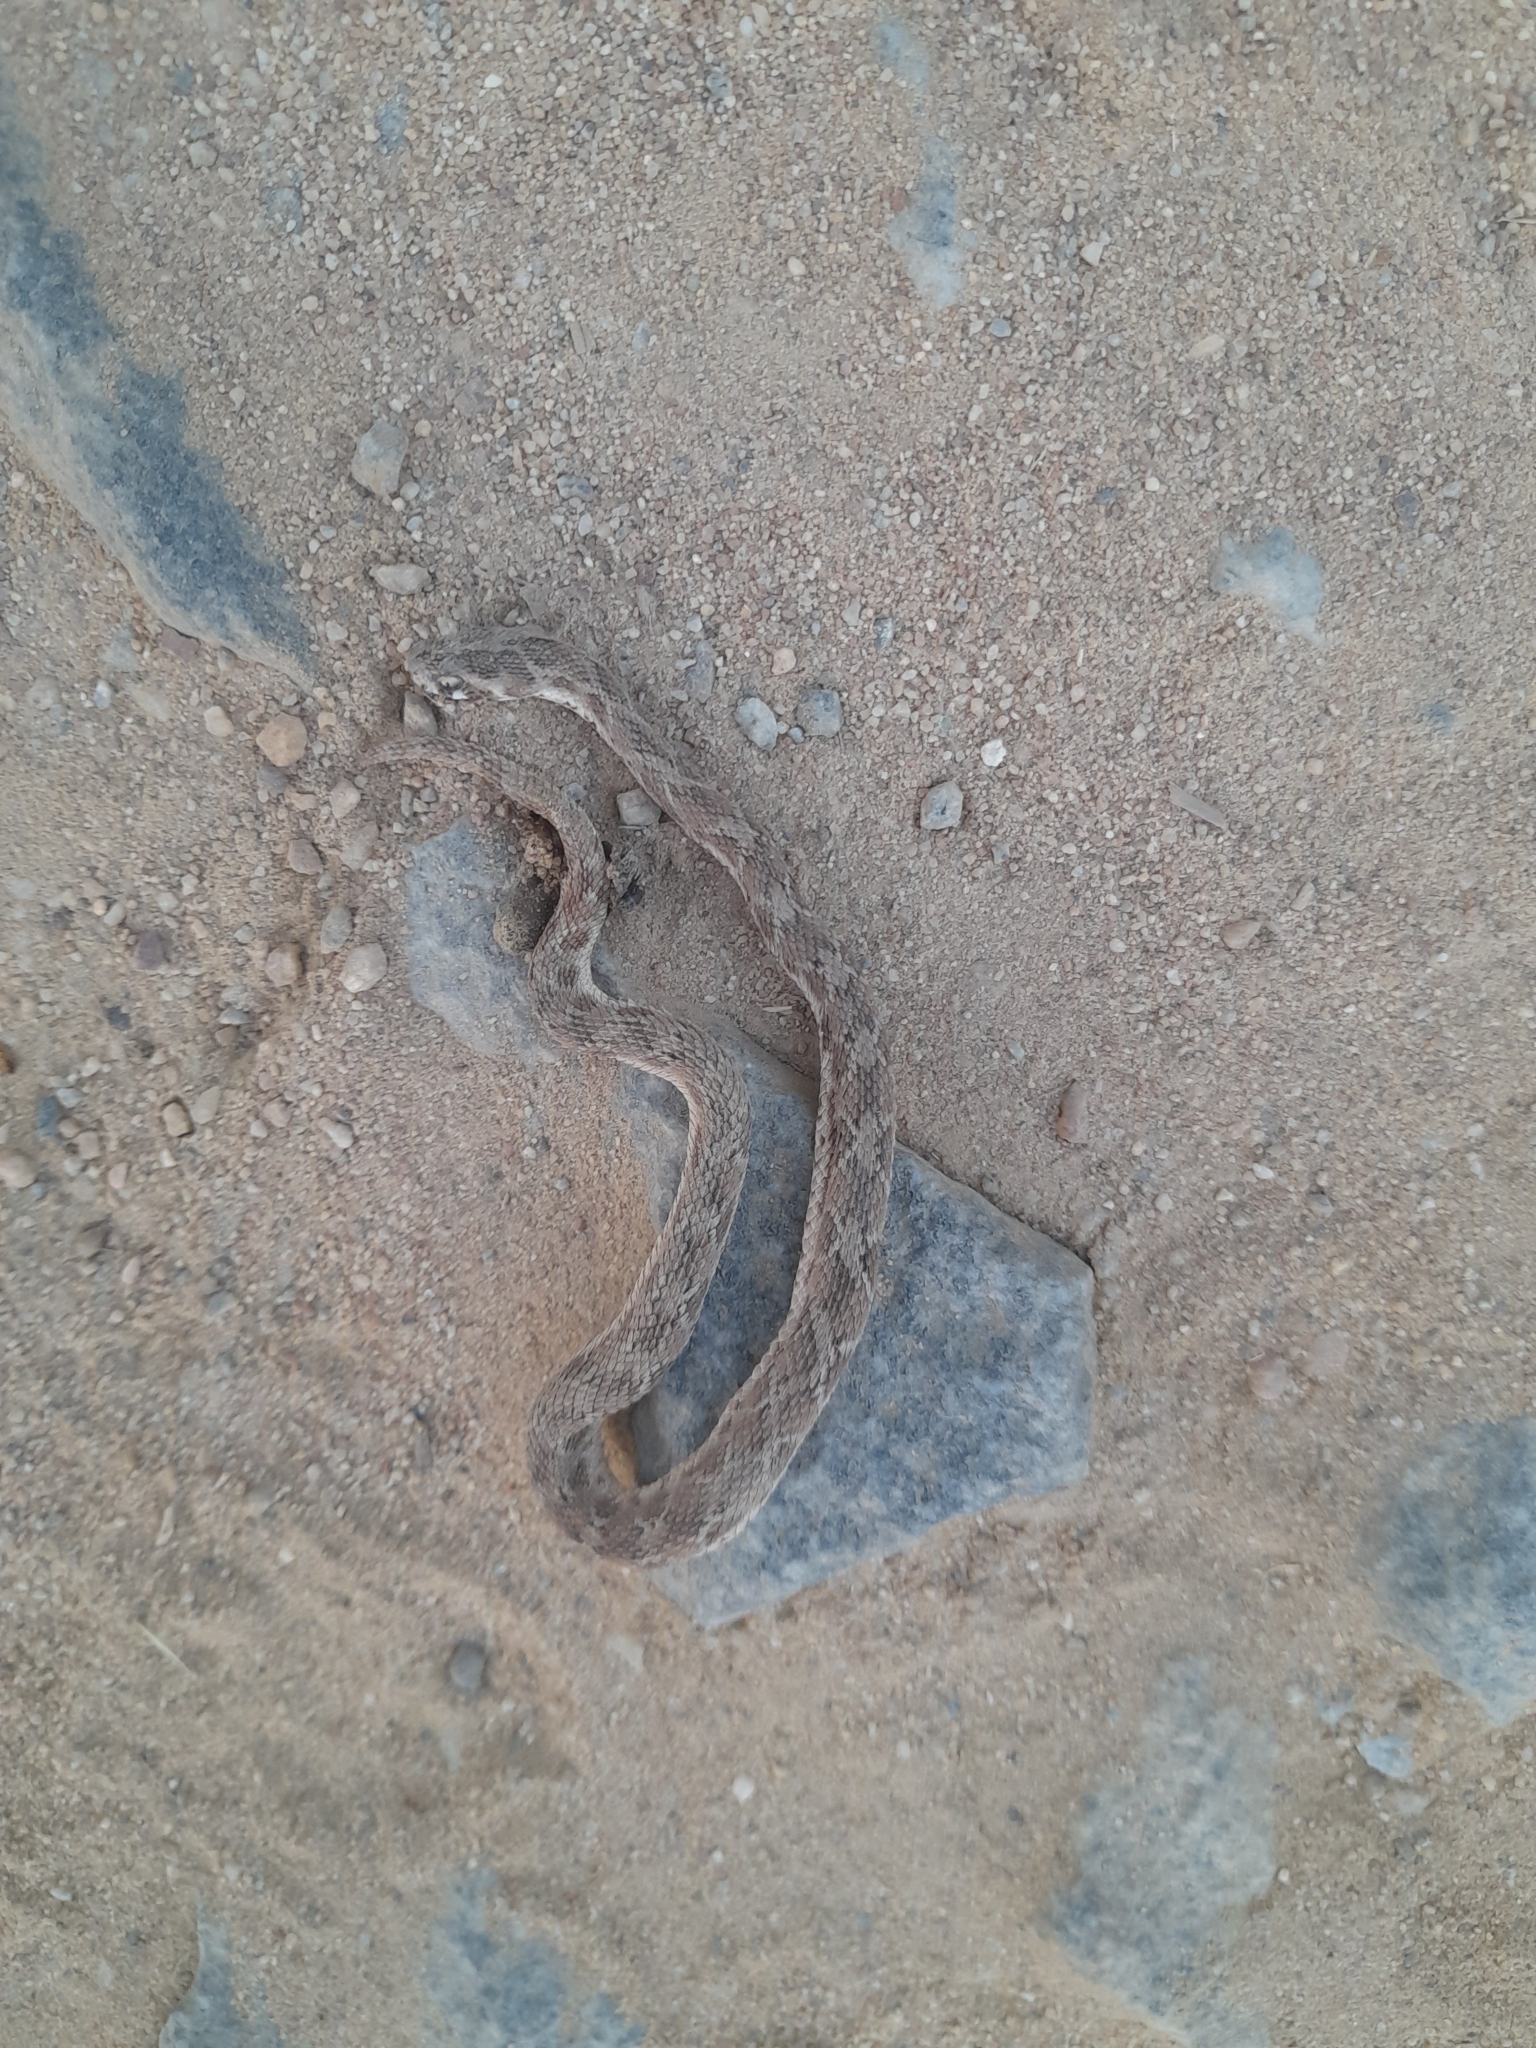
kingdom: Animalia
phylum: Chordata
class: Squamata
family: Viperidae
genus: Echis
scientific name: Echis carinatus
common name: Saw-scaled viper
